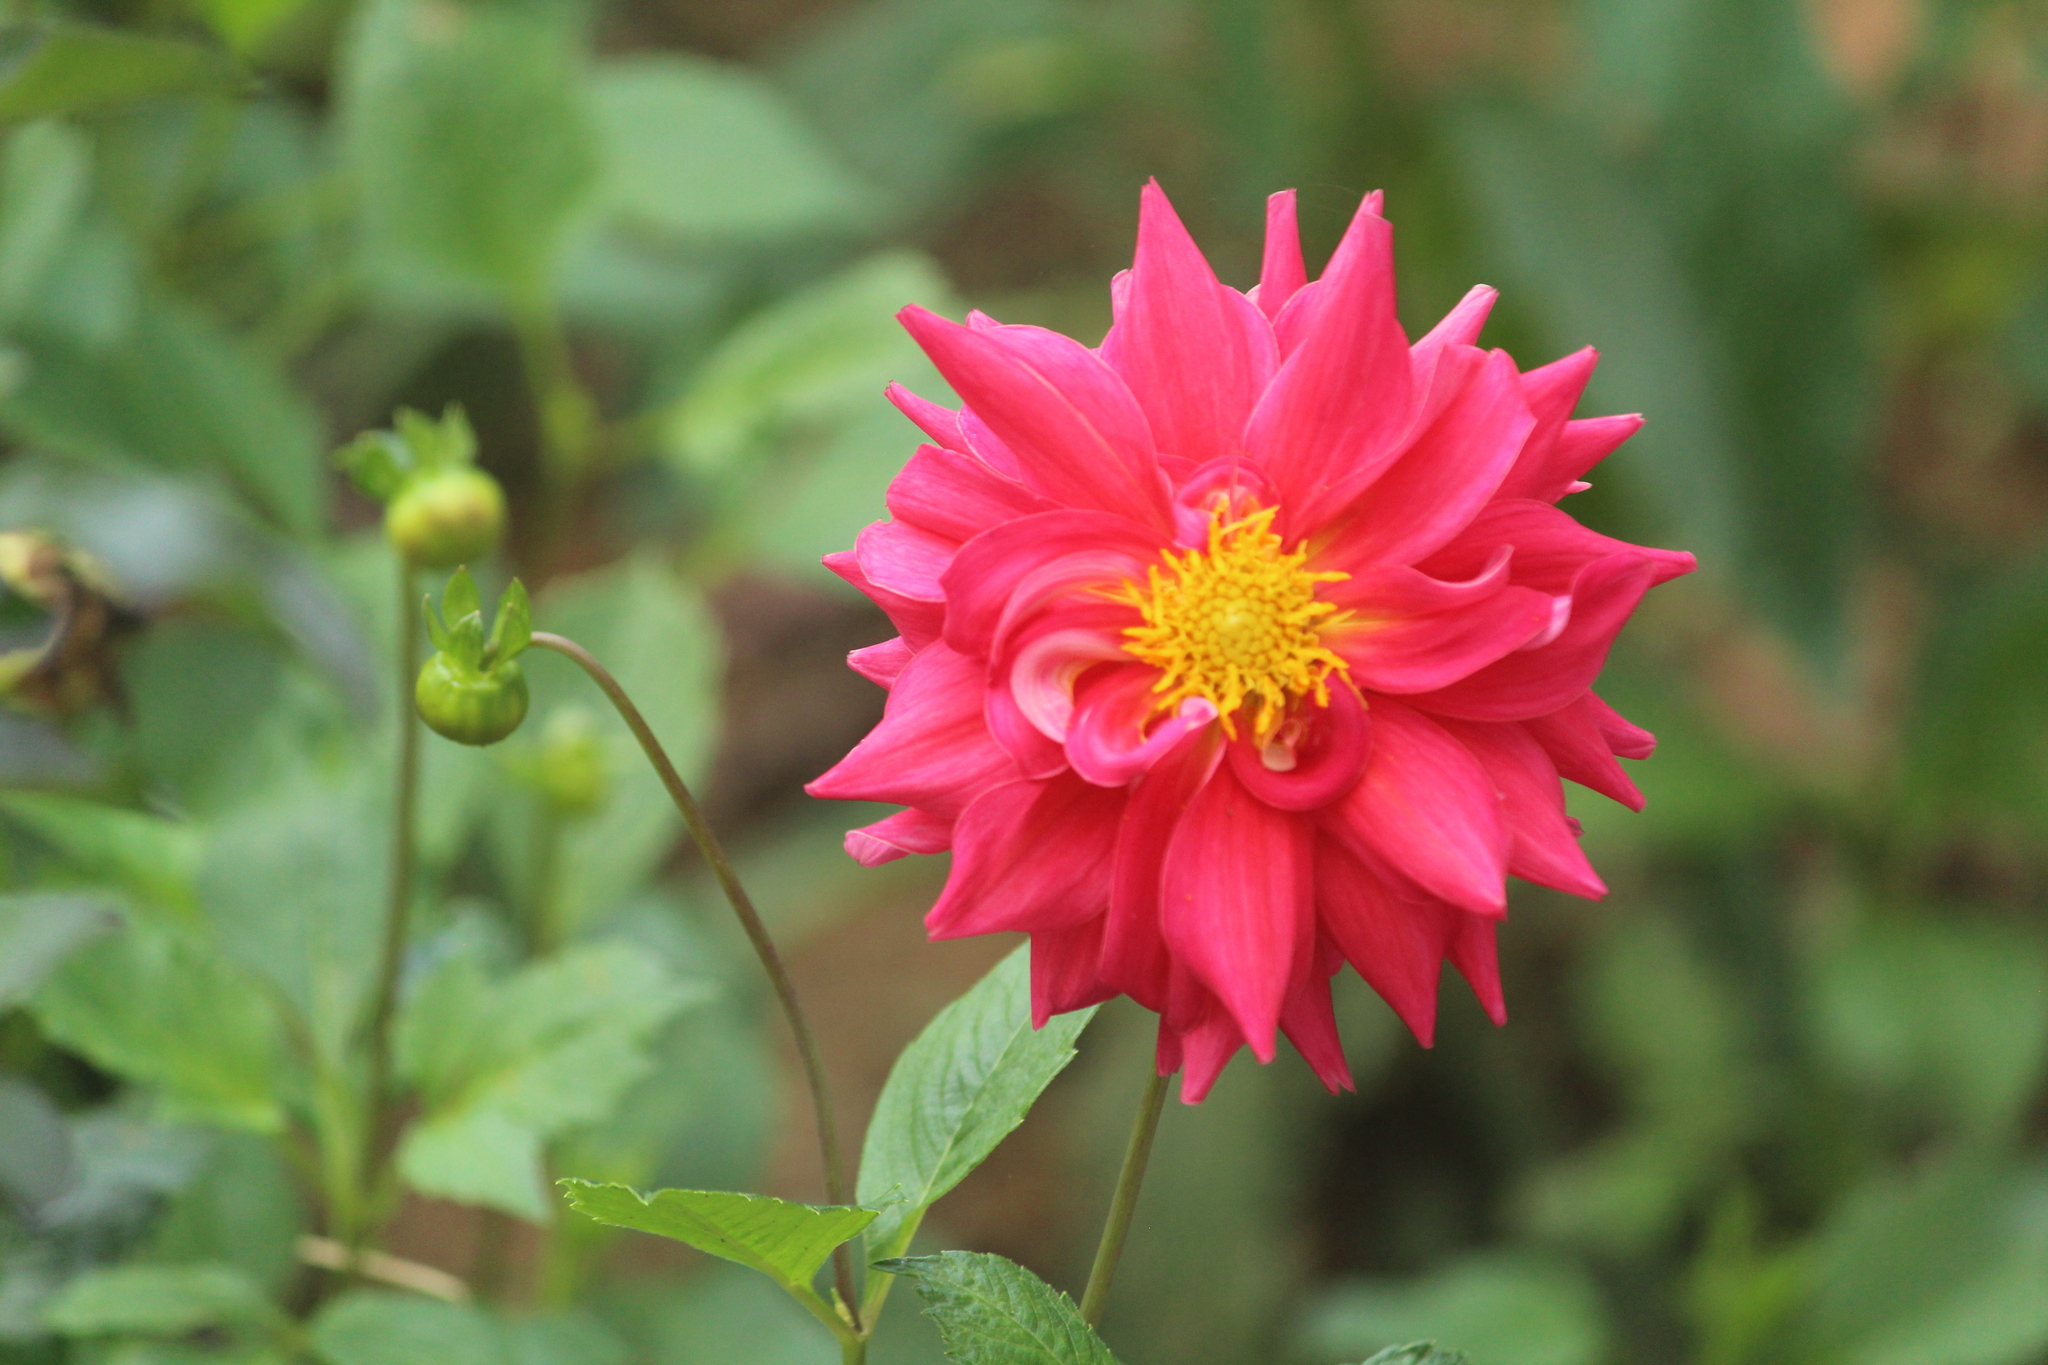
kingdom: Plantae
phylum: Tracheophyta
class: Magnoliopsida
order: Asterales
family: Asteraceae
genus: Dahlia
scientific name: Dahlia pinnata
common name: Dahlia
